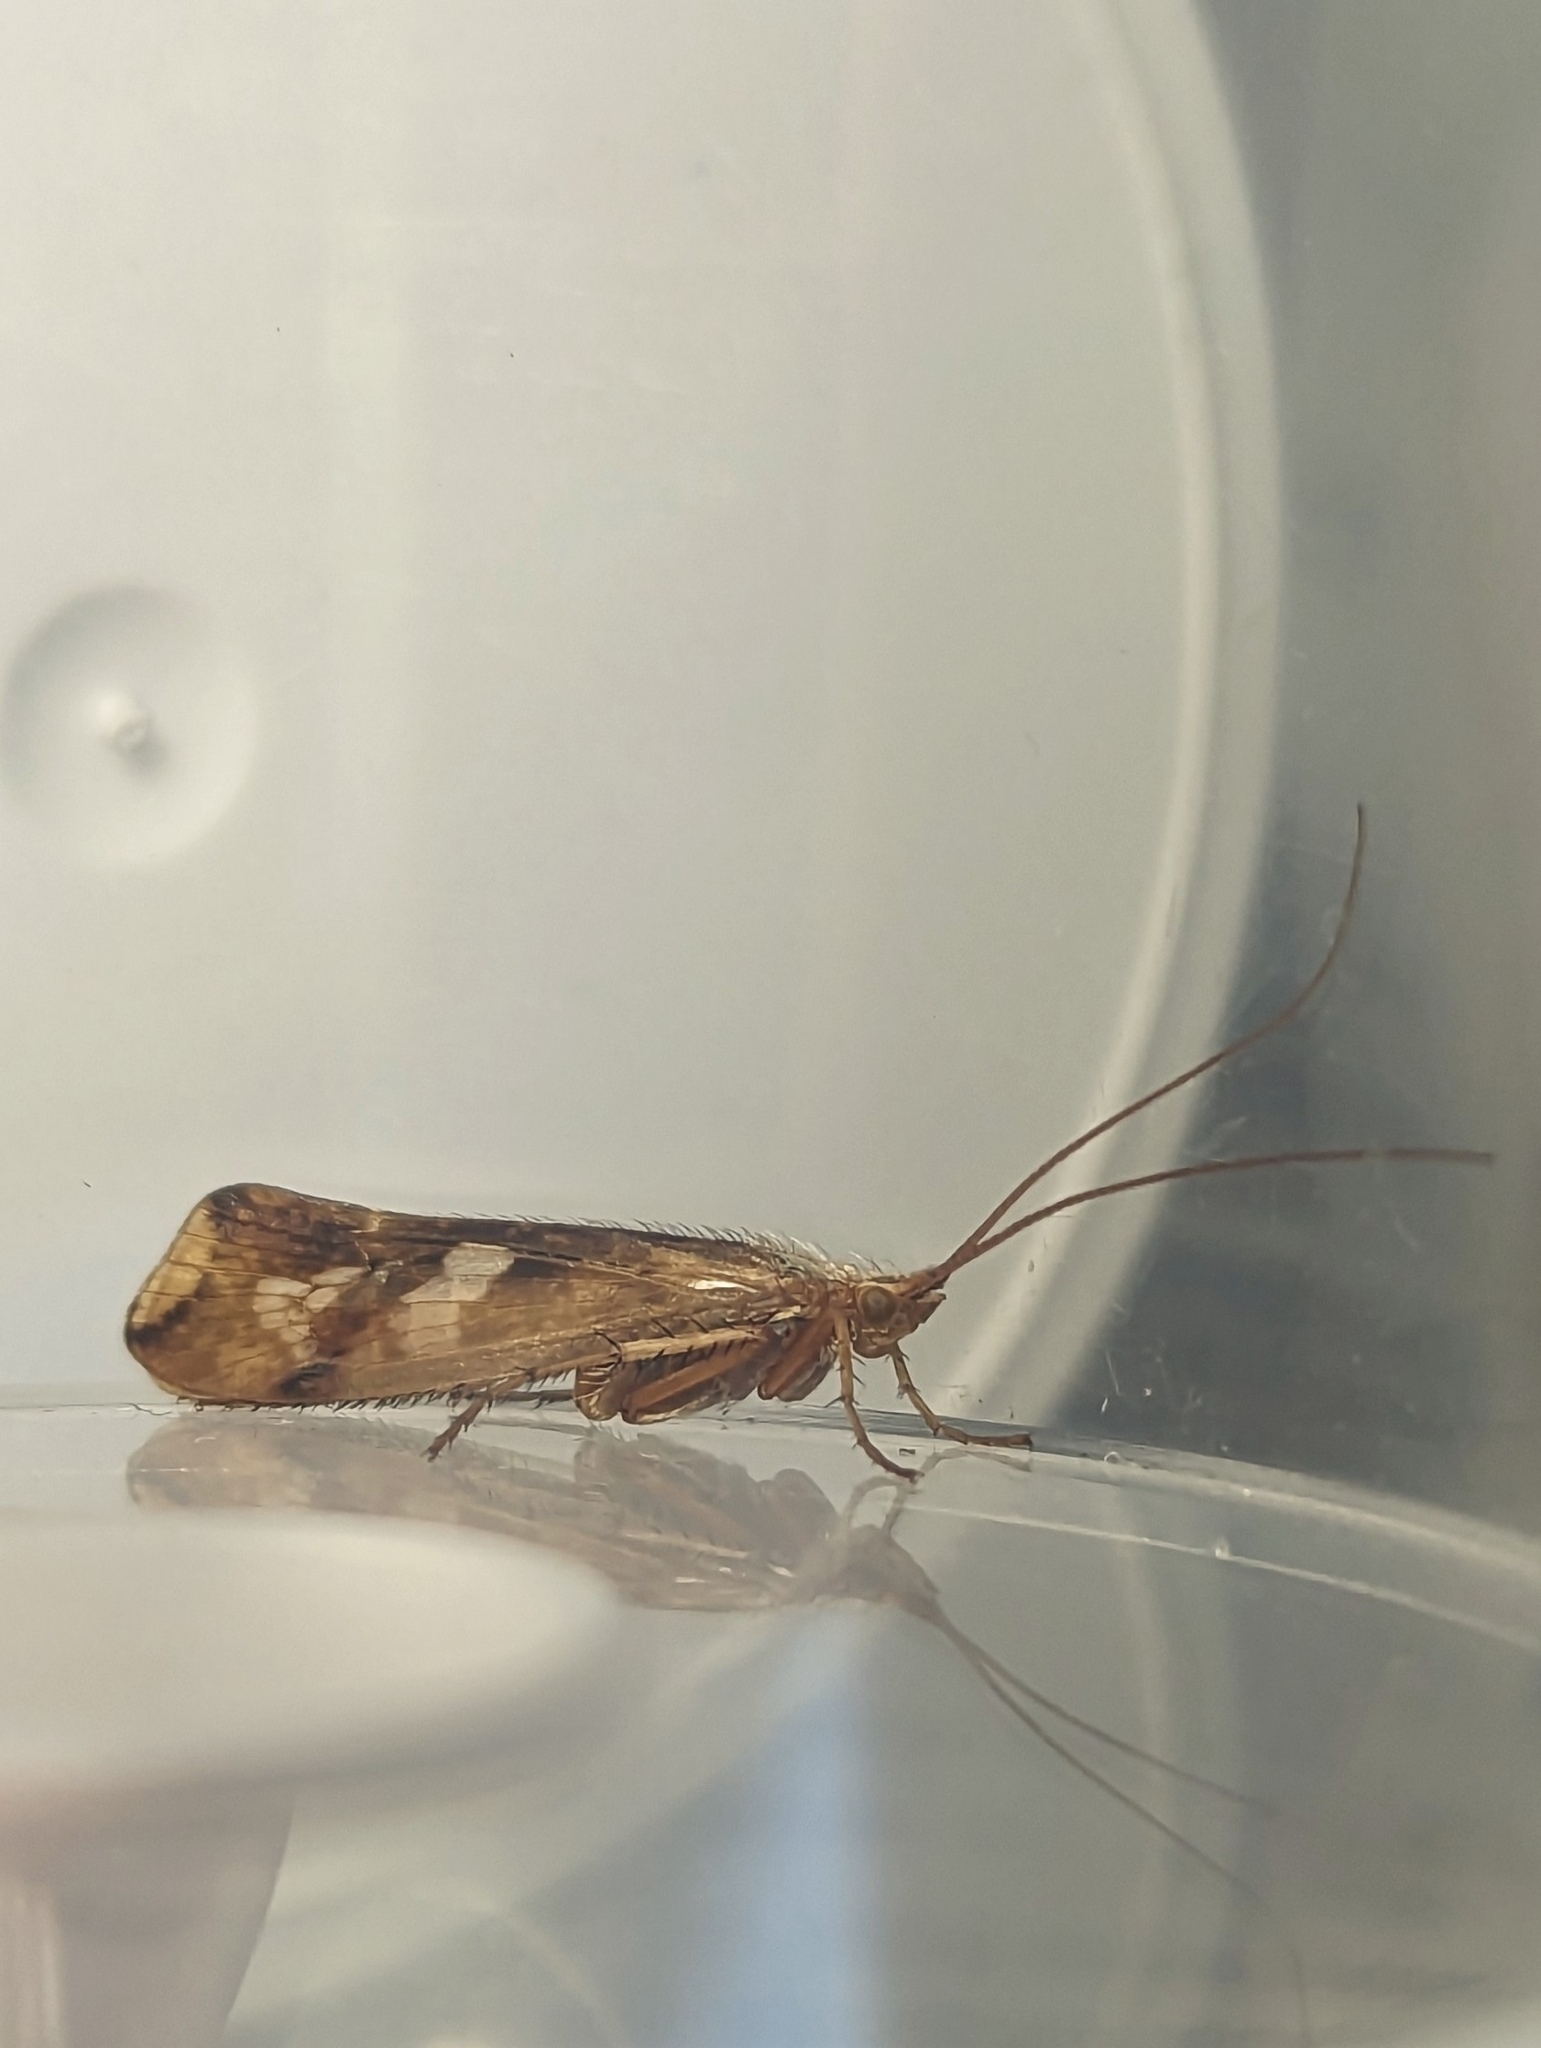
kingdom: Animalia
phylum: Arthropoda
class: Insecta
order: Trichoptera
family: Limnephilidae
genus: Limnephilus
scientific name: Limnephilus lunatus
